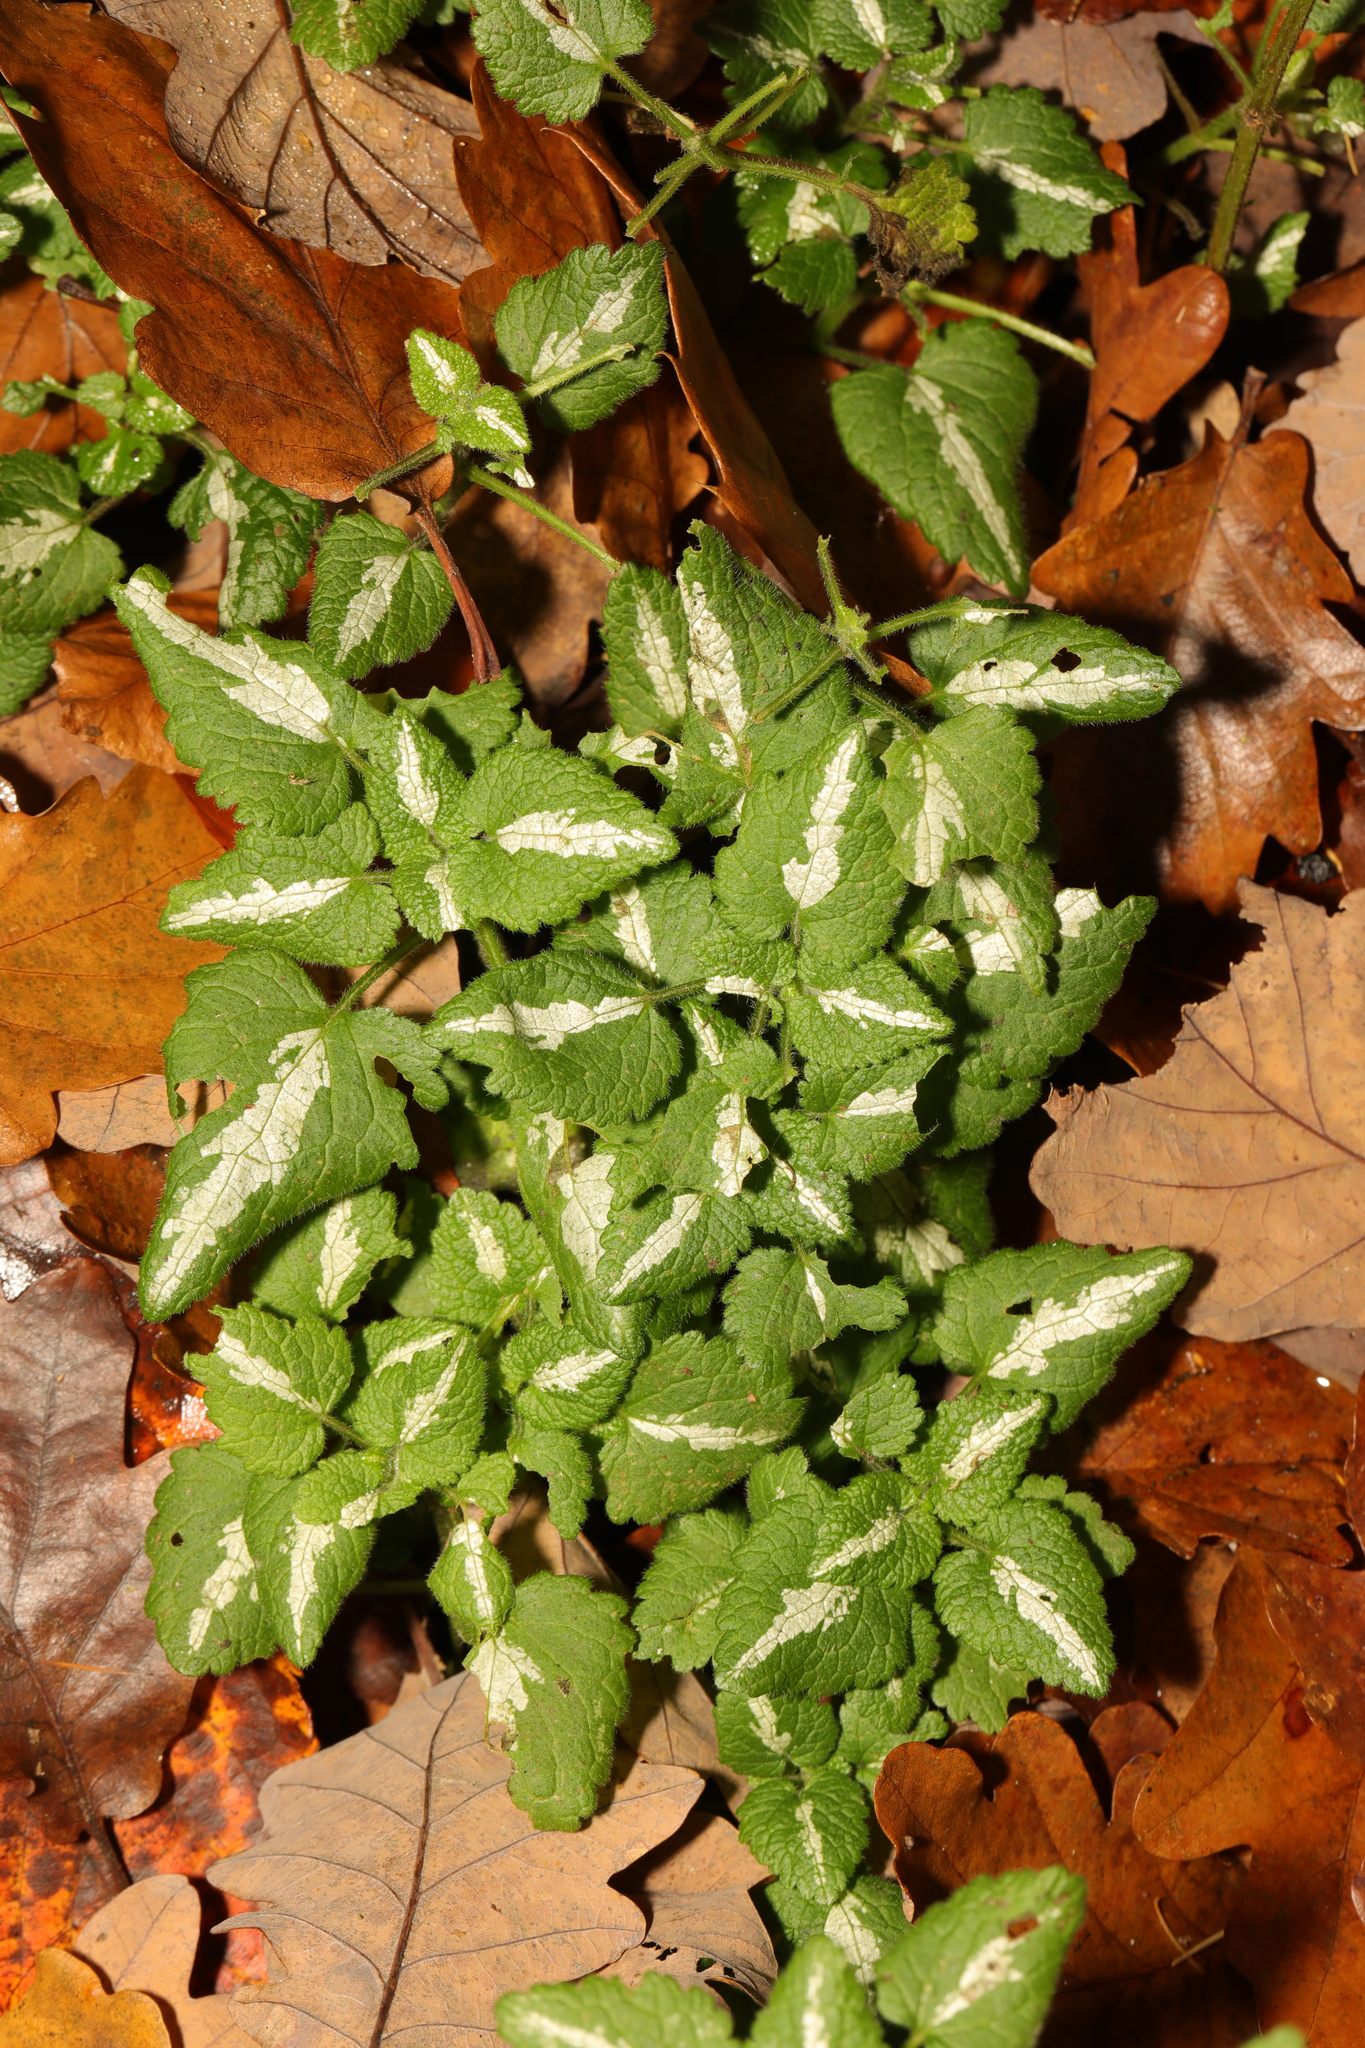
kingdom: Plantae
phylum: Tracheophyta
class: Magnoliopsida
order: Lamiales
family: Lamiaceae
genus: Lamium
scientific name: Lamium maculatum
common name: Spotted dead-nettle
